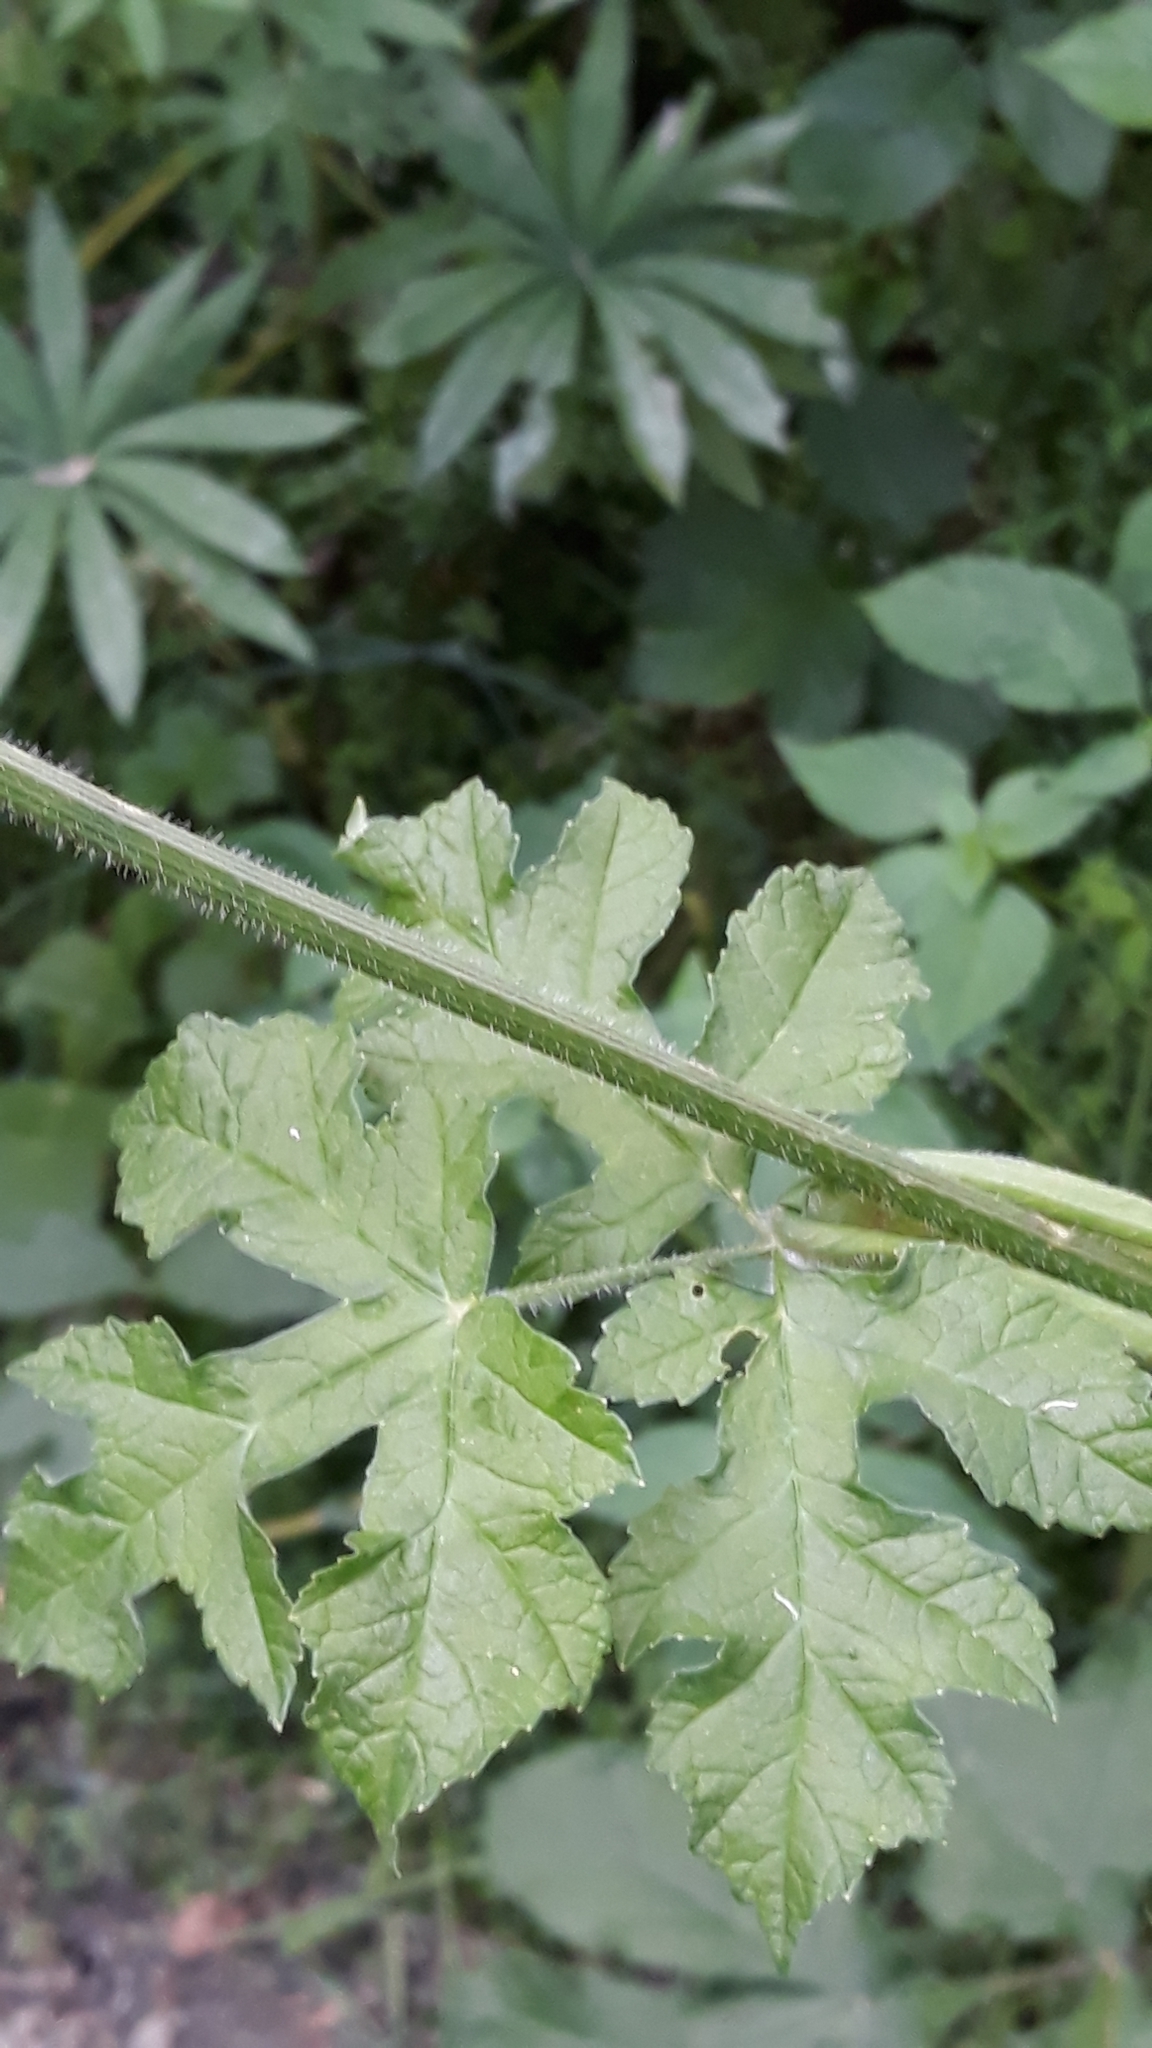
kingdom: Plantae
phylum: Tracheophyta
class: Magnoliopsida
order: Apiales
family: Apiaceae
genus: Heracleum
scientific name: Heracleum sphondylium
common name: Hogweed
